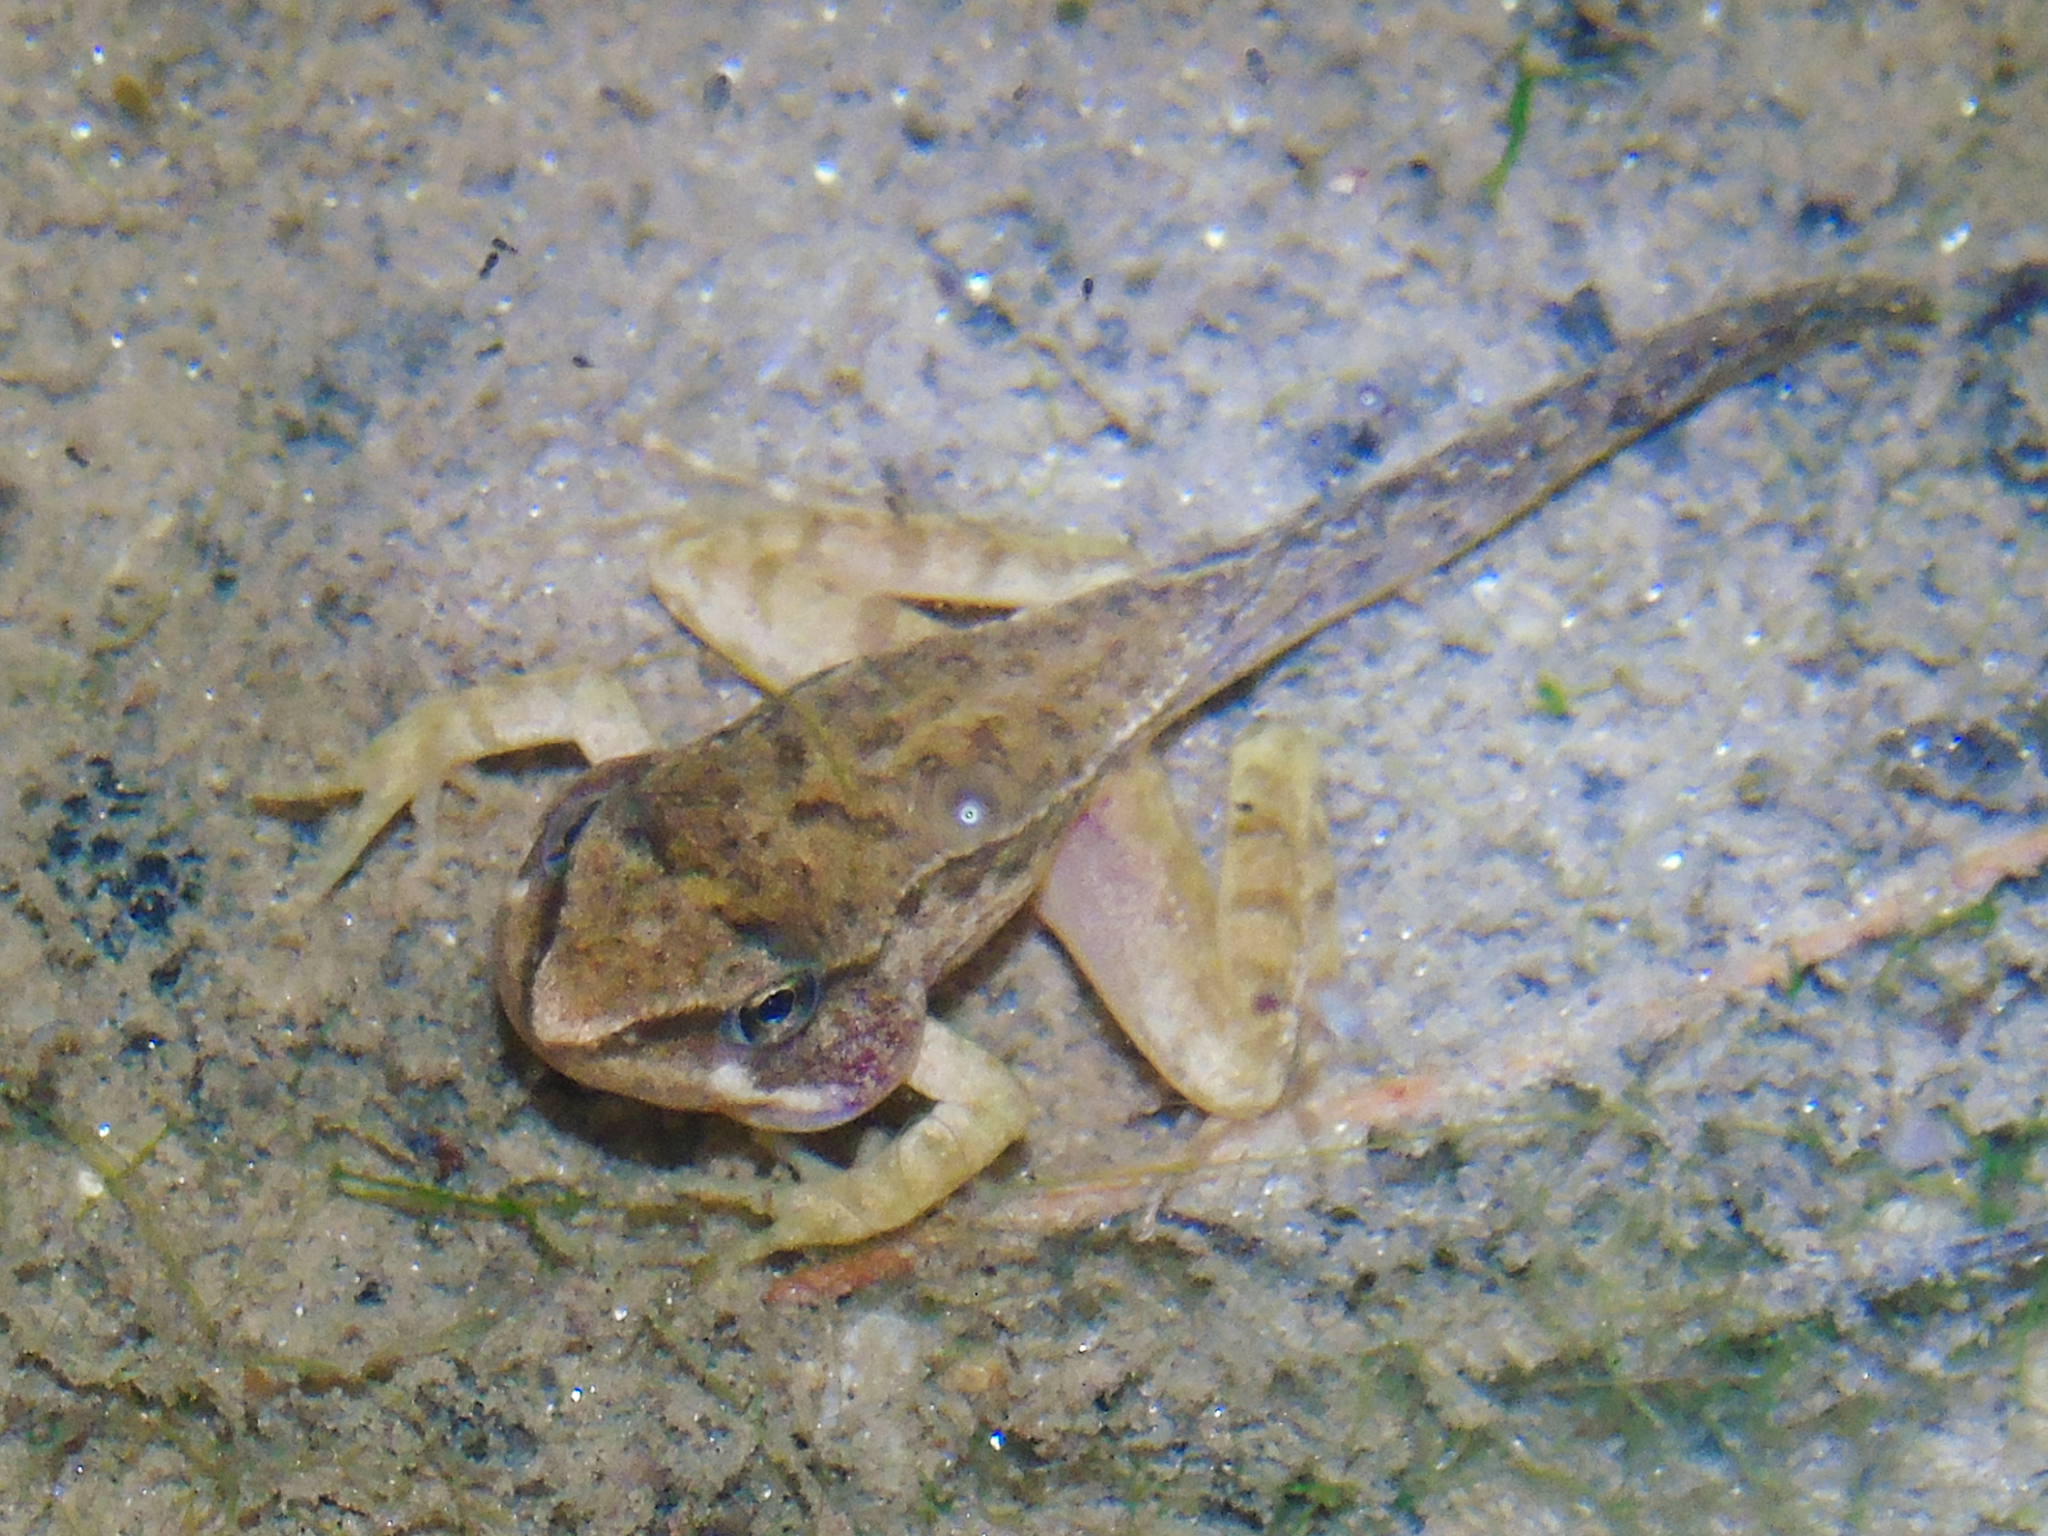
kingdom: Animalia
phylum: Chordata
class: Amphibia
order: Anura
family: Ranidae
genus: Rana
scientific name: Rana temporaria
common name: Common frog
